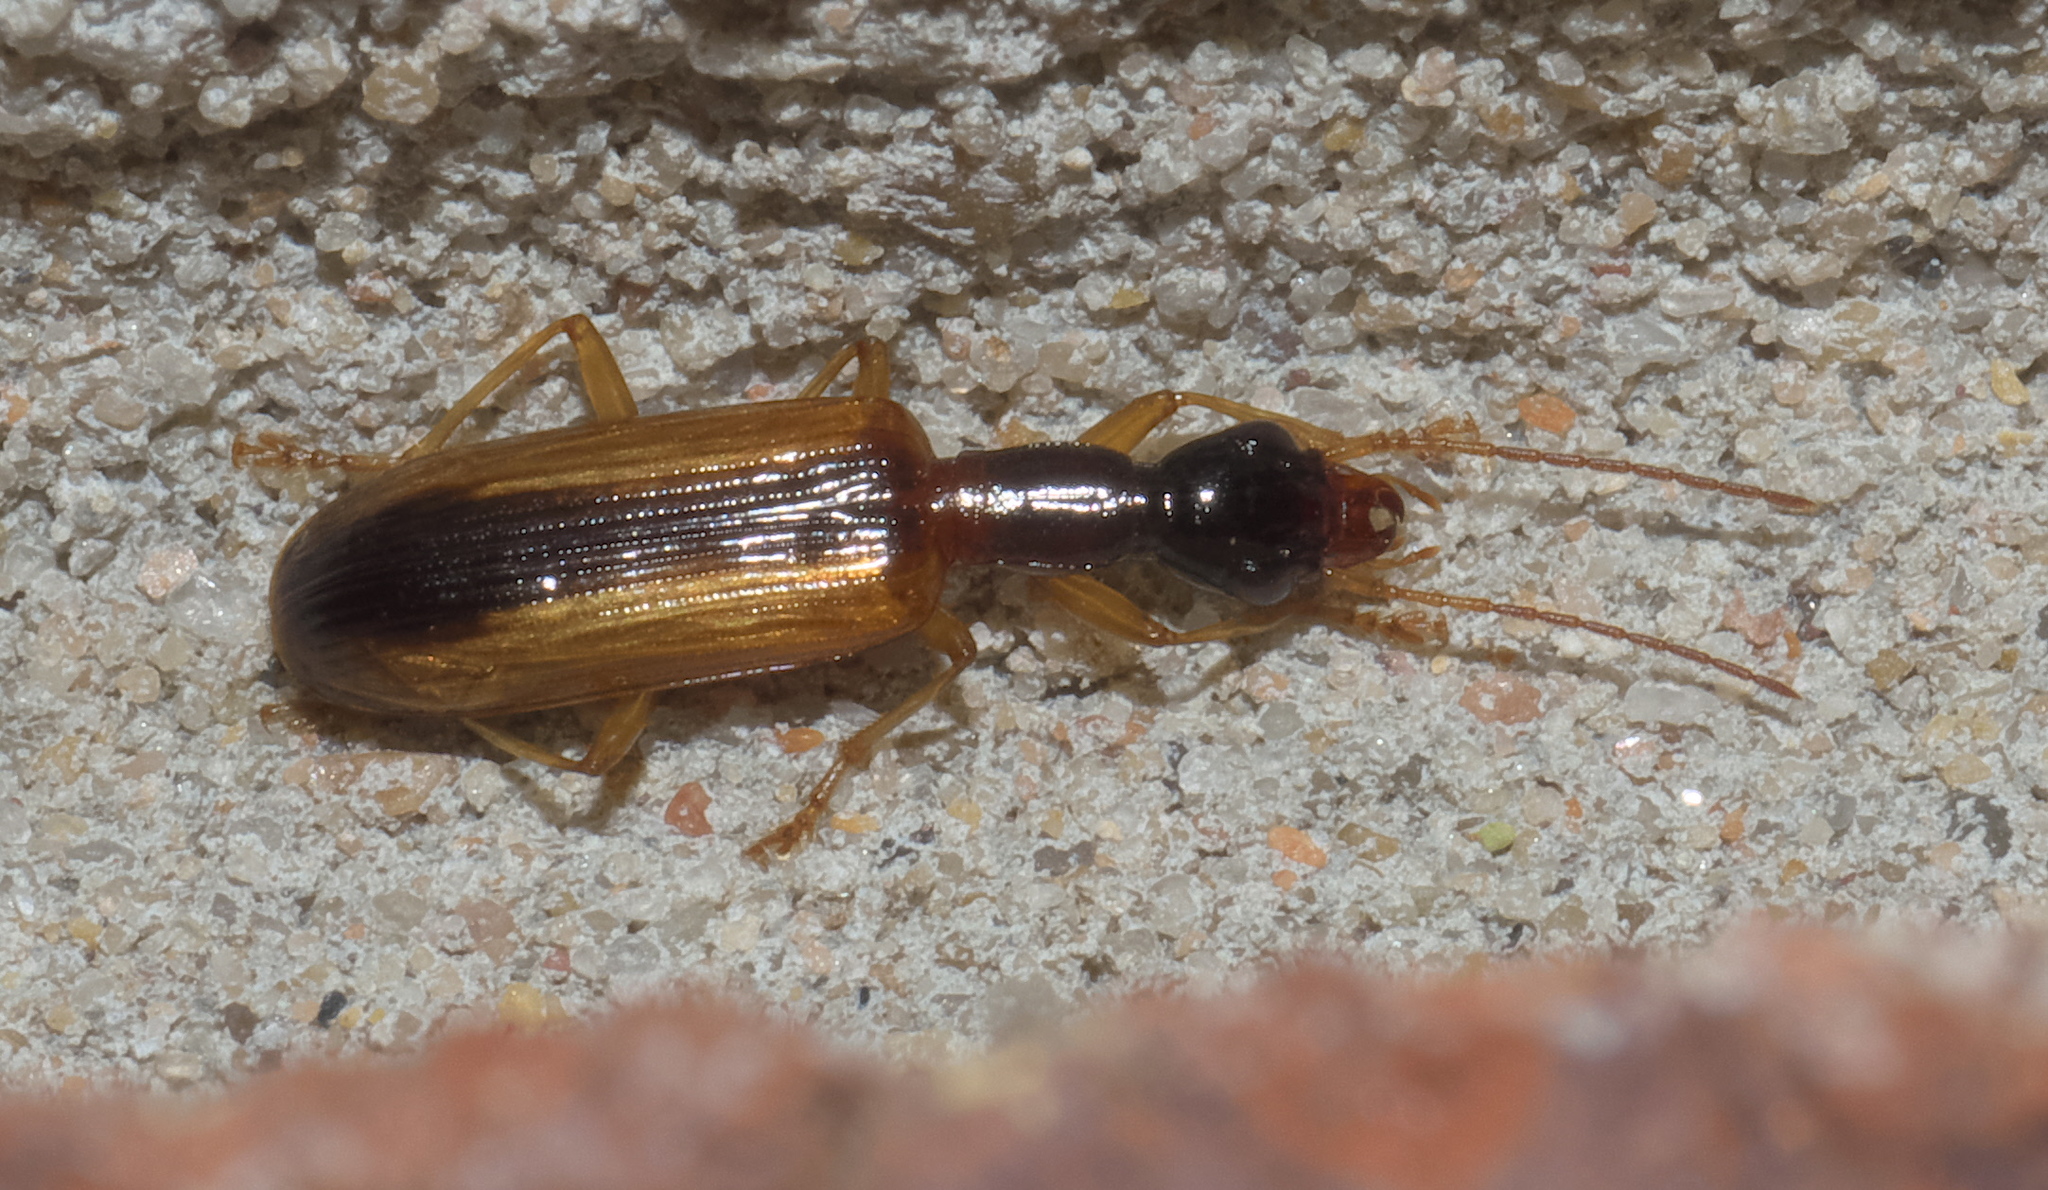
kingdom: Animalia
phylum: Arthropoda
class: Insecta
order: Coleoptera
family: Carabidae
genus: Leptotrachelus
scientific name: Leptotrachelus dorsalis
